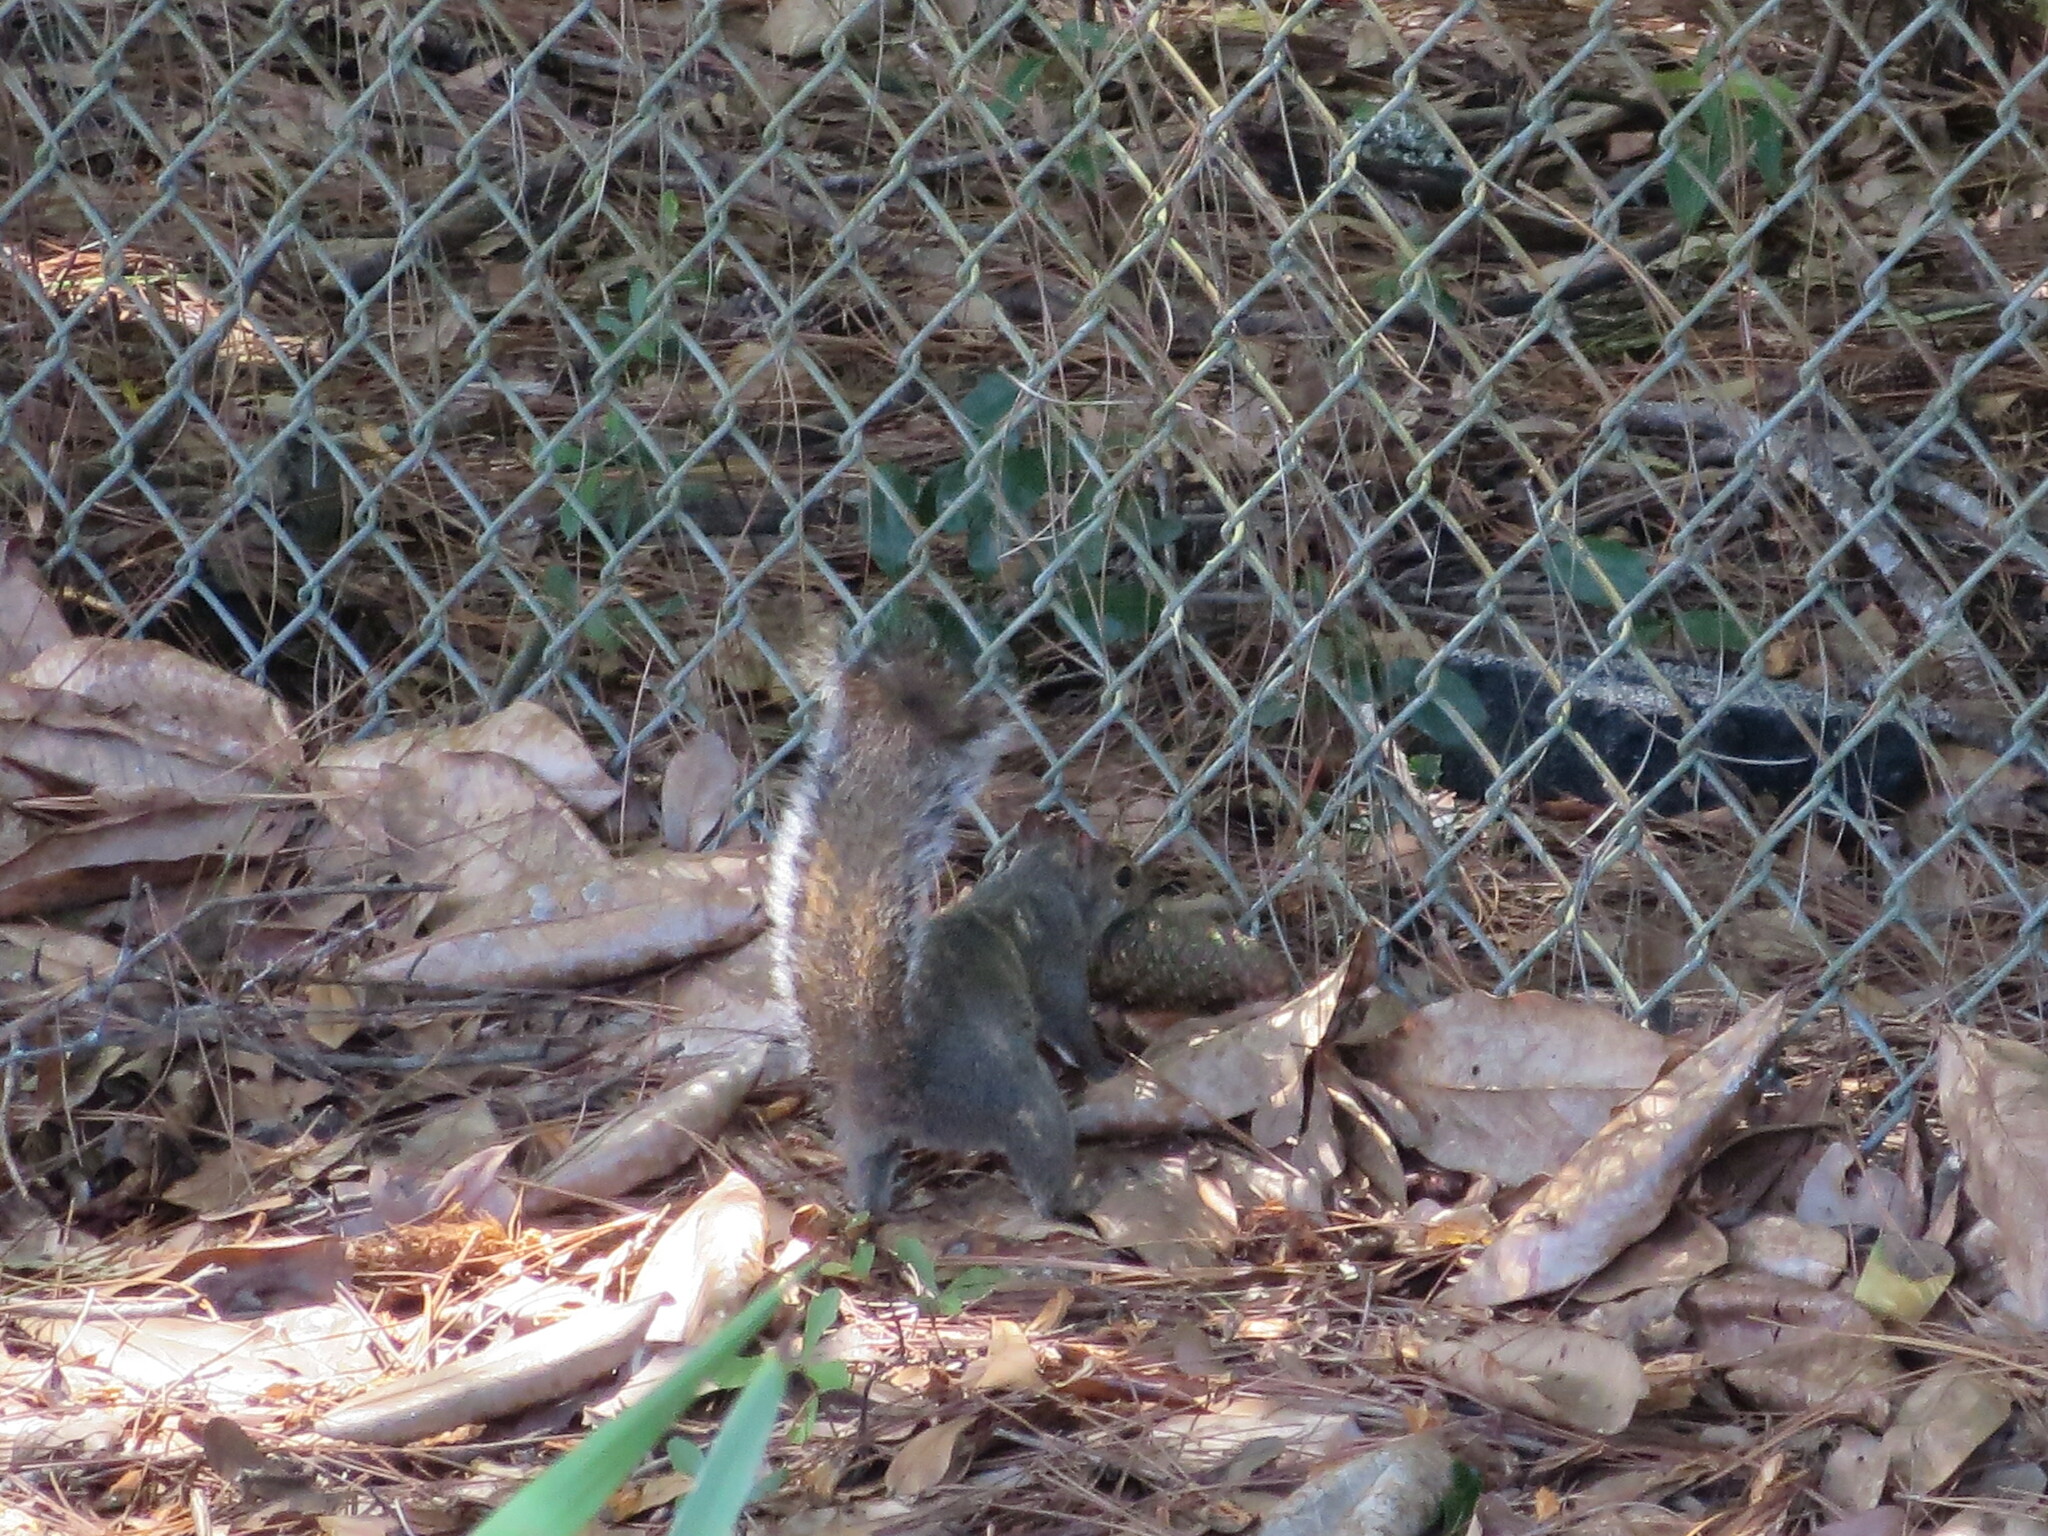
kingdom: Animalia
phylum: Chordata
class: Mammalia
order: Rodentia
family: Sciuridae
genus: Sciurus
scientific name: Sciurus carolinensis
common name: Eastern gray squirrel
